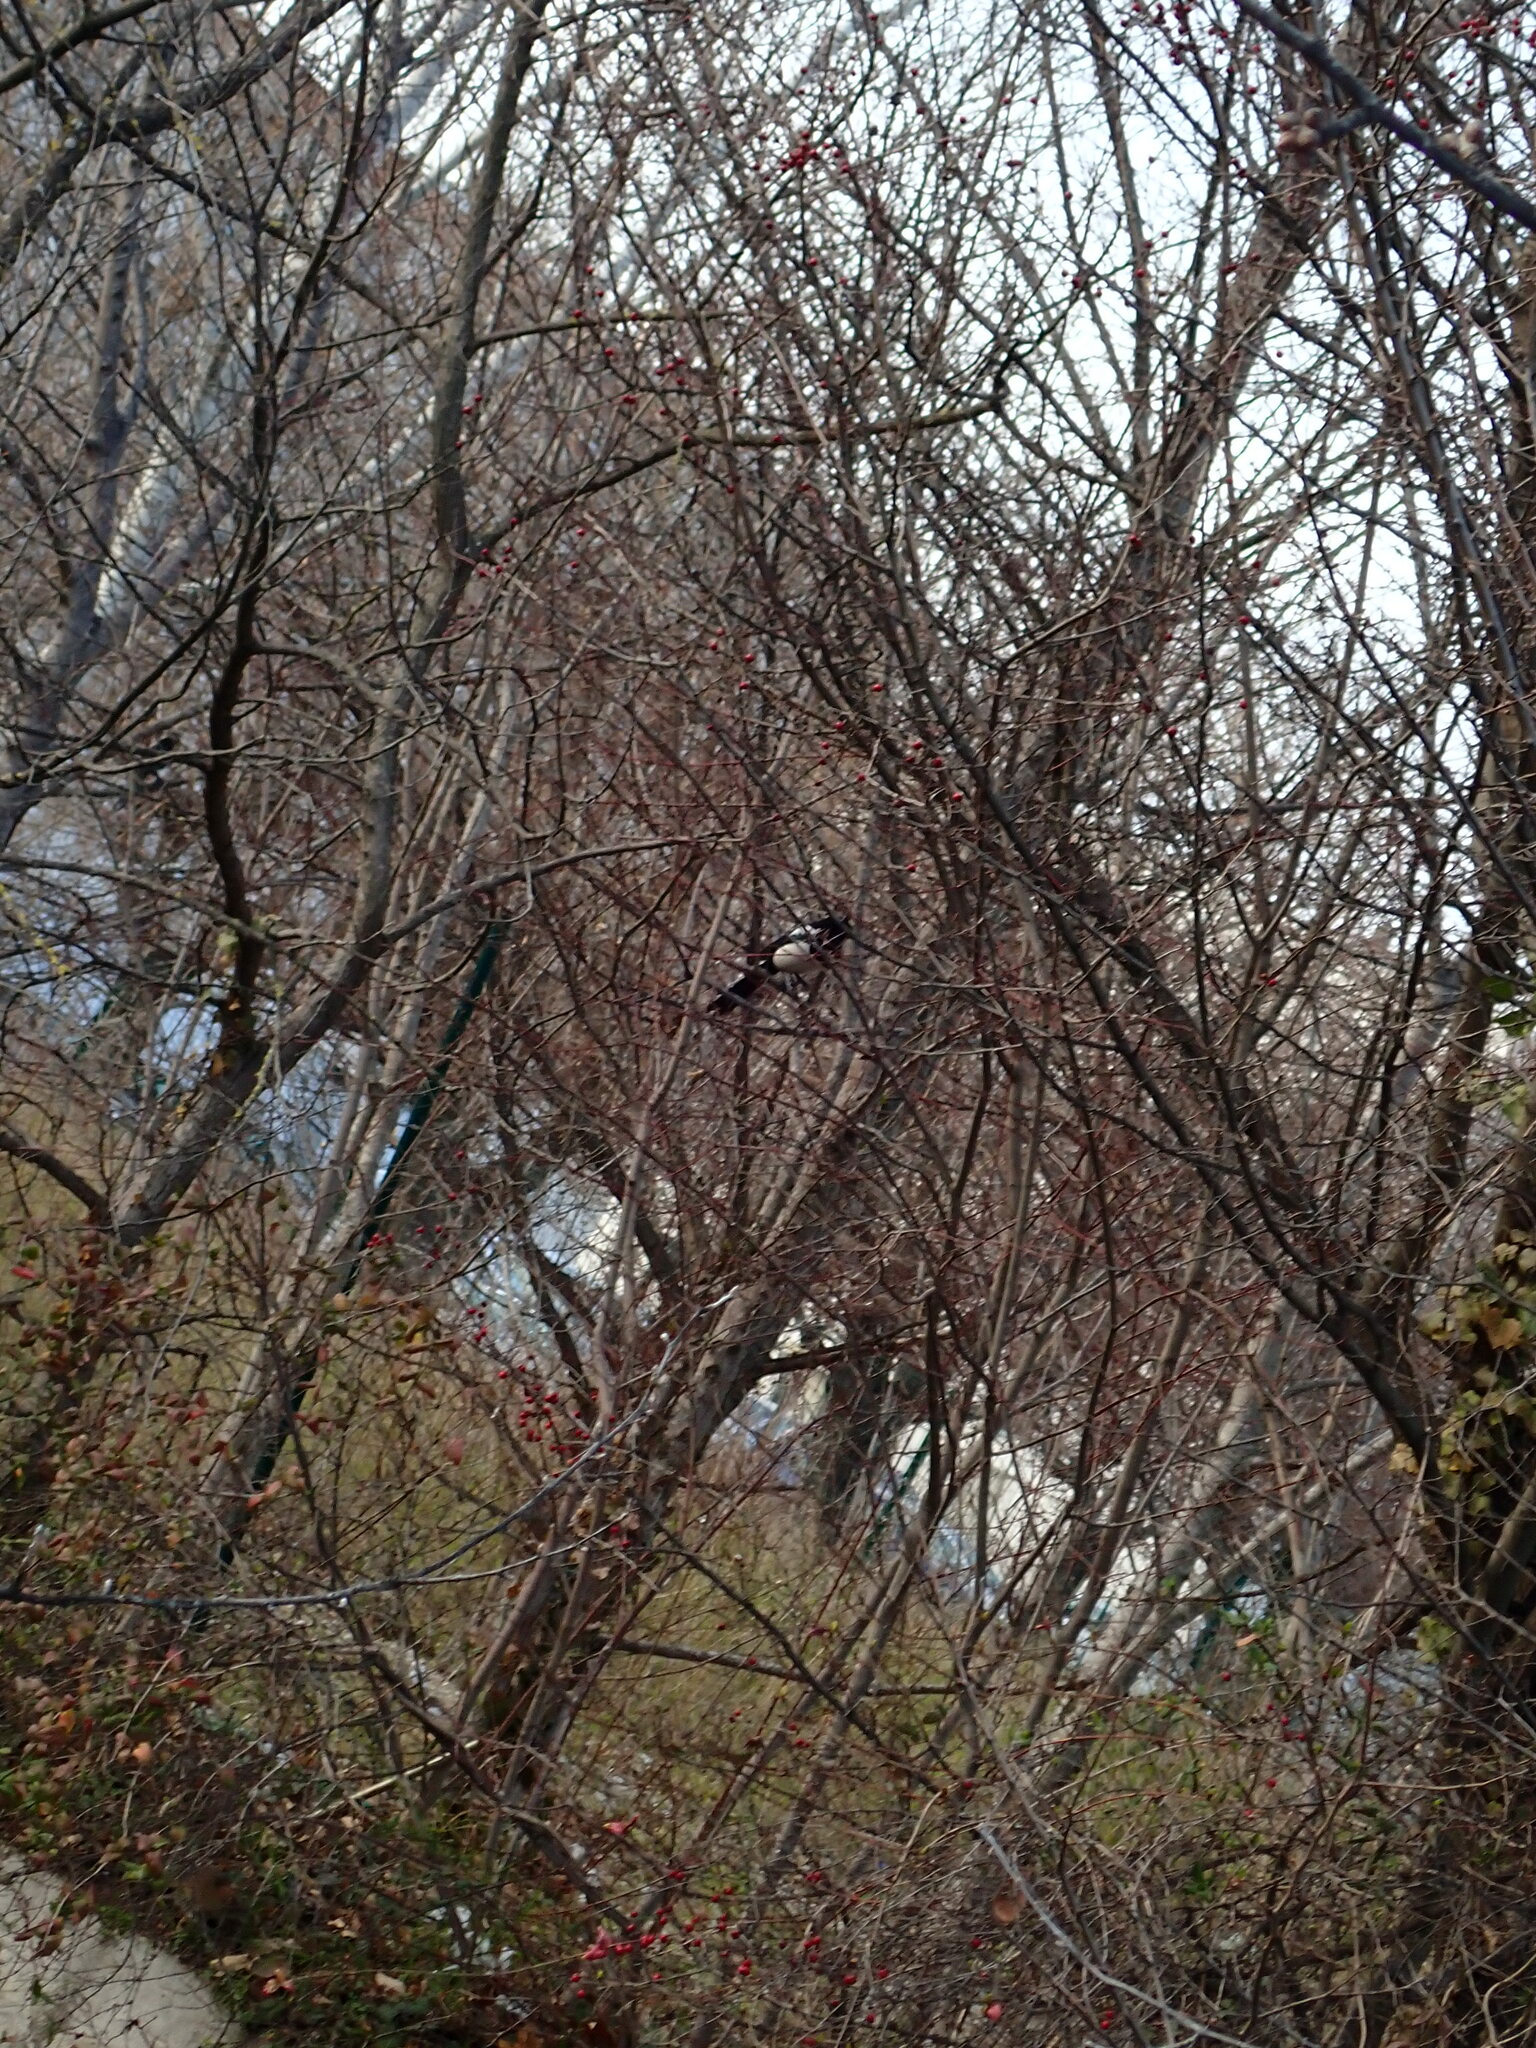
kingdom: Animalia
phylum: Chordata
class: Aves
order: Passeriformes
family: Corvidae
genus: Pica
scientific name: Pica pica
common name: Eurasian magpie
